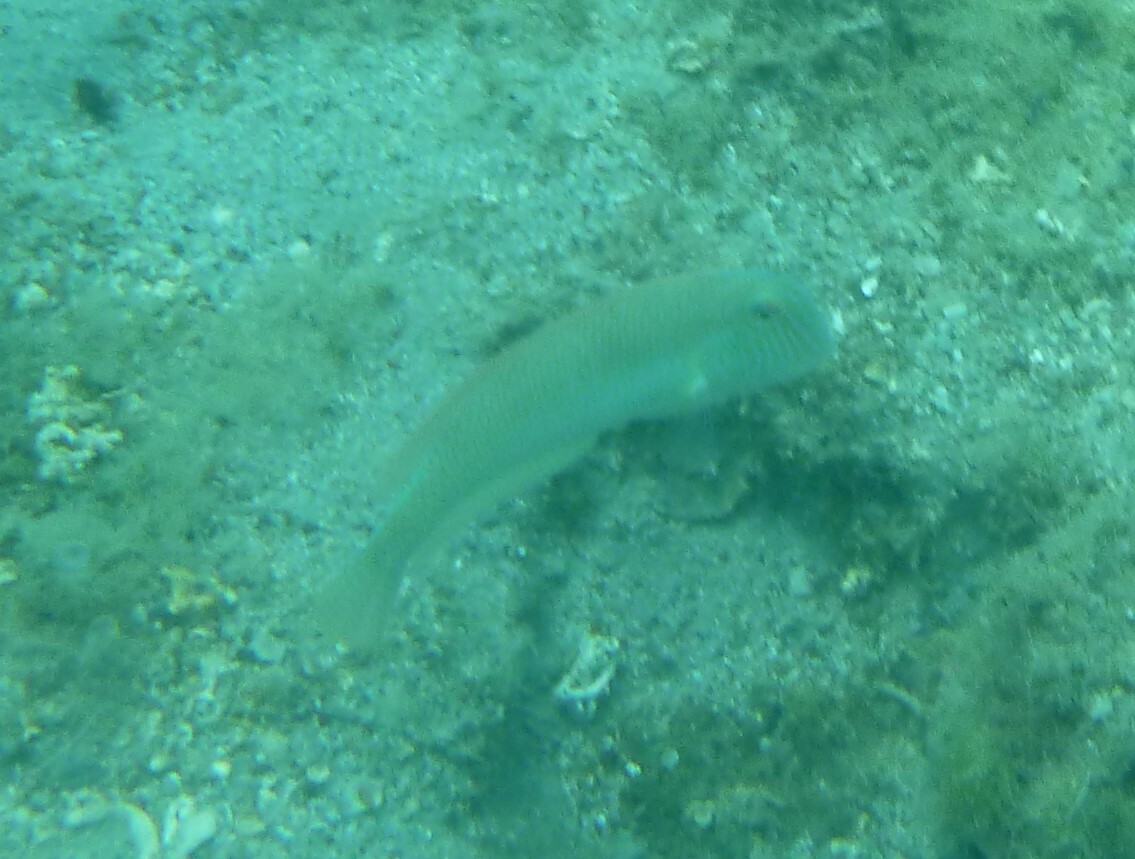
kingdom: Animalia
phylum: Chordata
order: Perciformes
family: Labridae
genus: Xyrichtys
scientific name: Xyrichtys novacula
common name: Pearly razorfish
